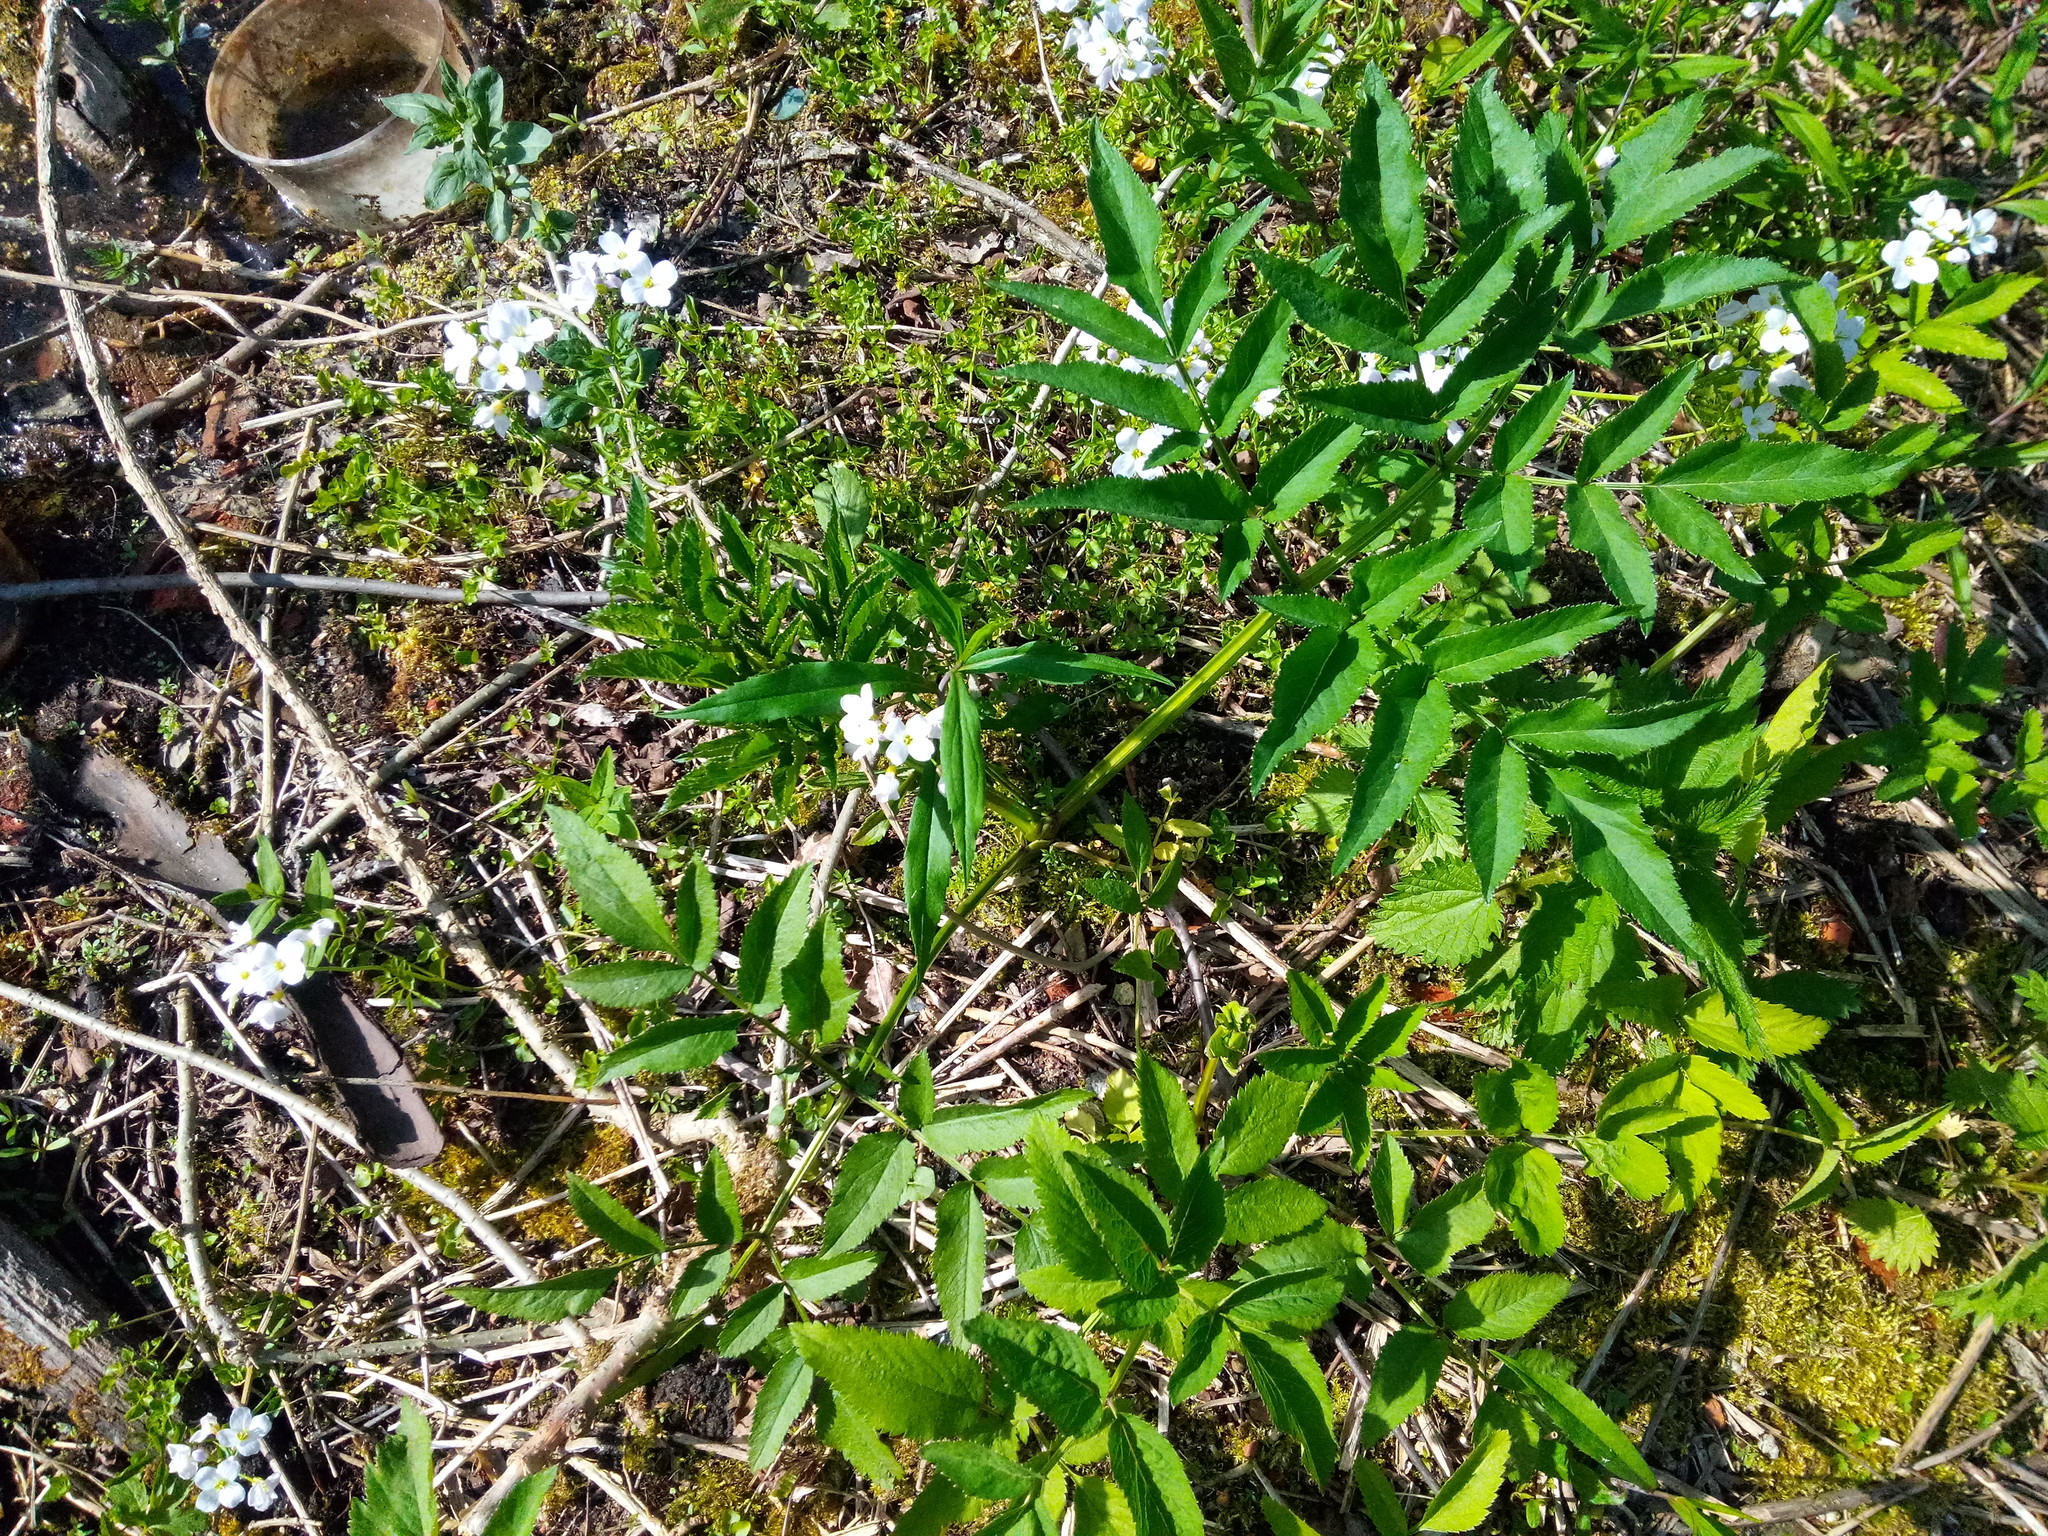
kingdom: Plantae
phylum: Tracheophyta
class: Magnoliopsida
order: Apiales
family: Apiaceae
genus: Angelica
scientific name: Angelica sylvestris
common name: Wild angelica
